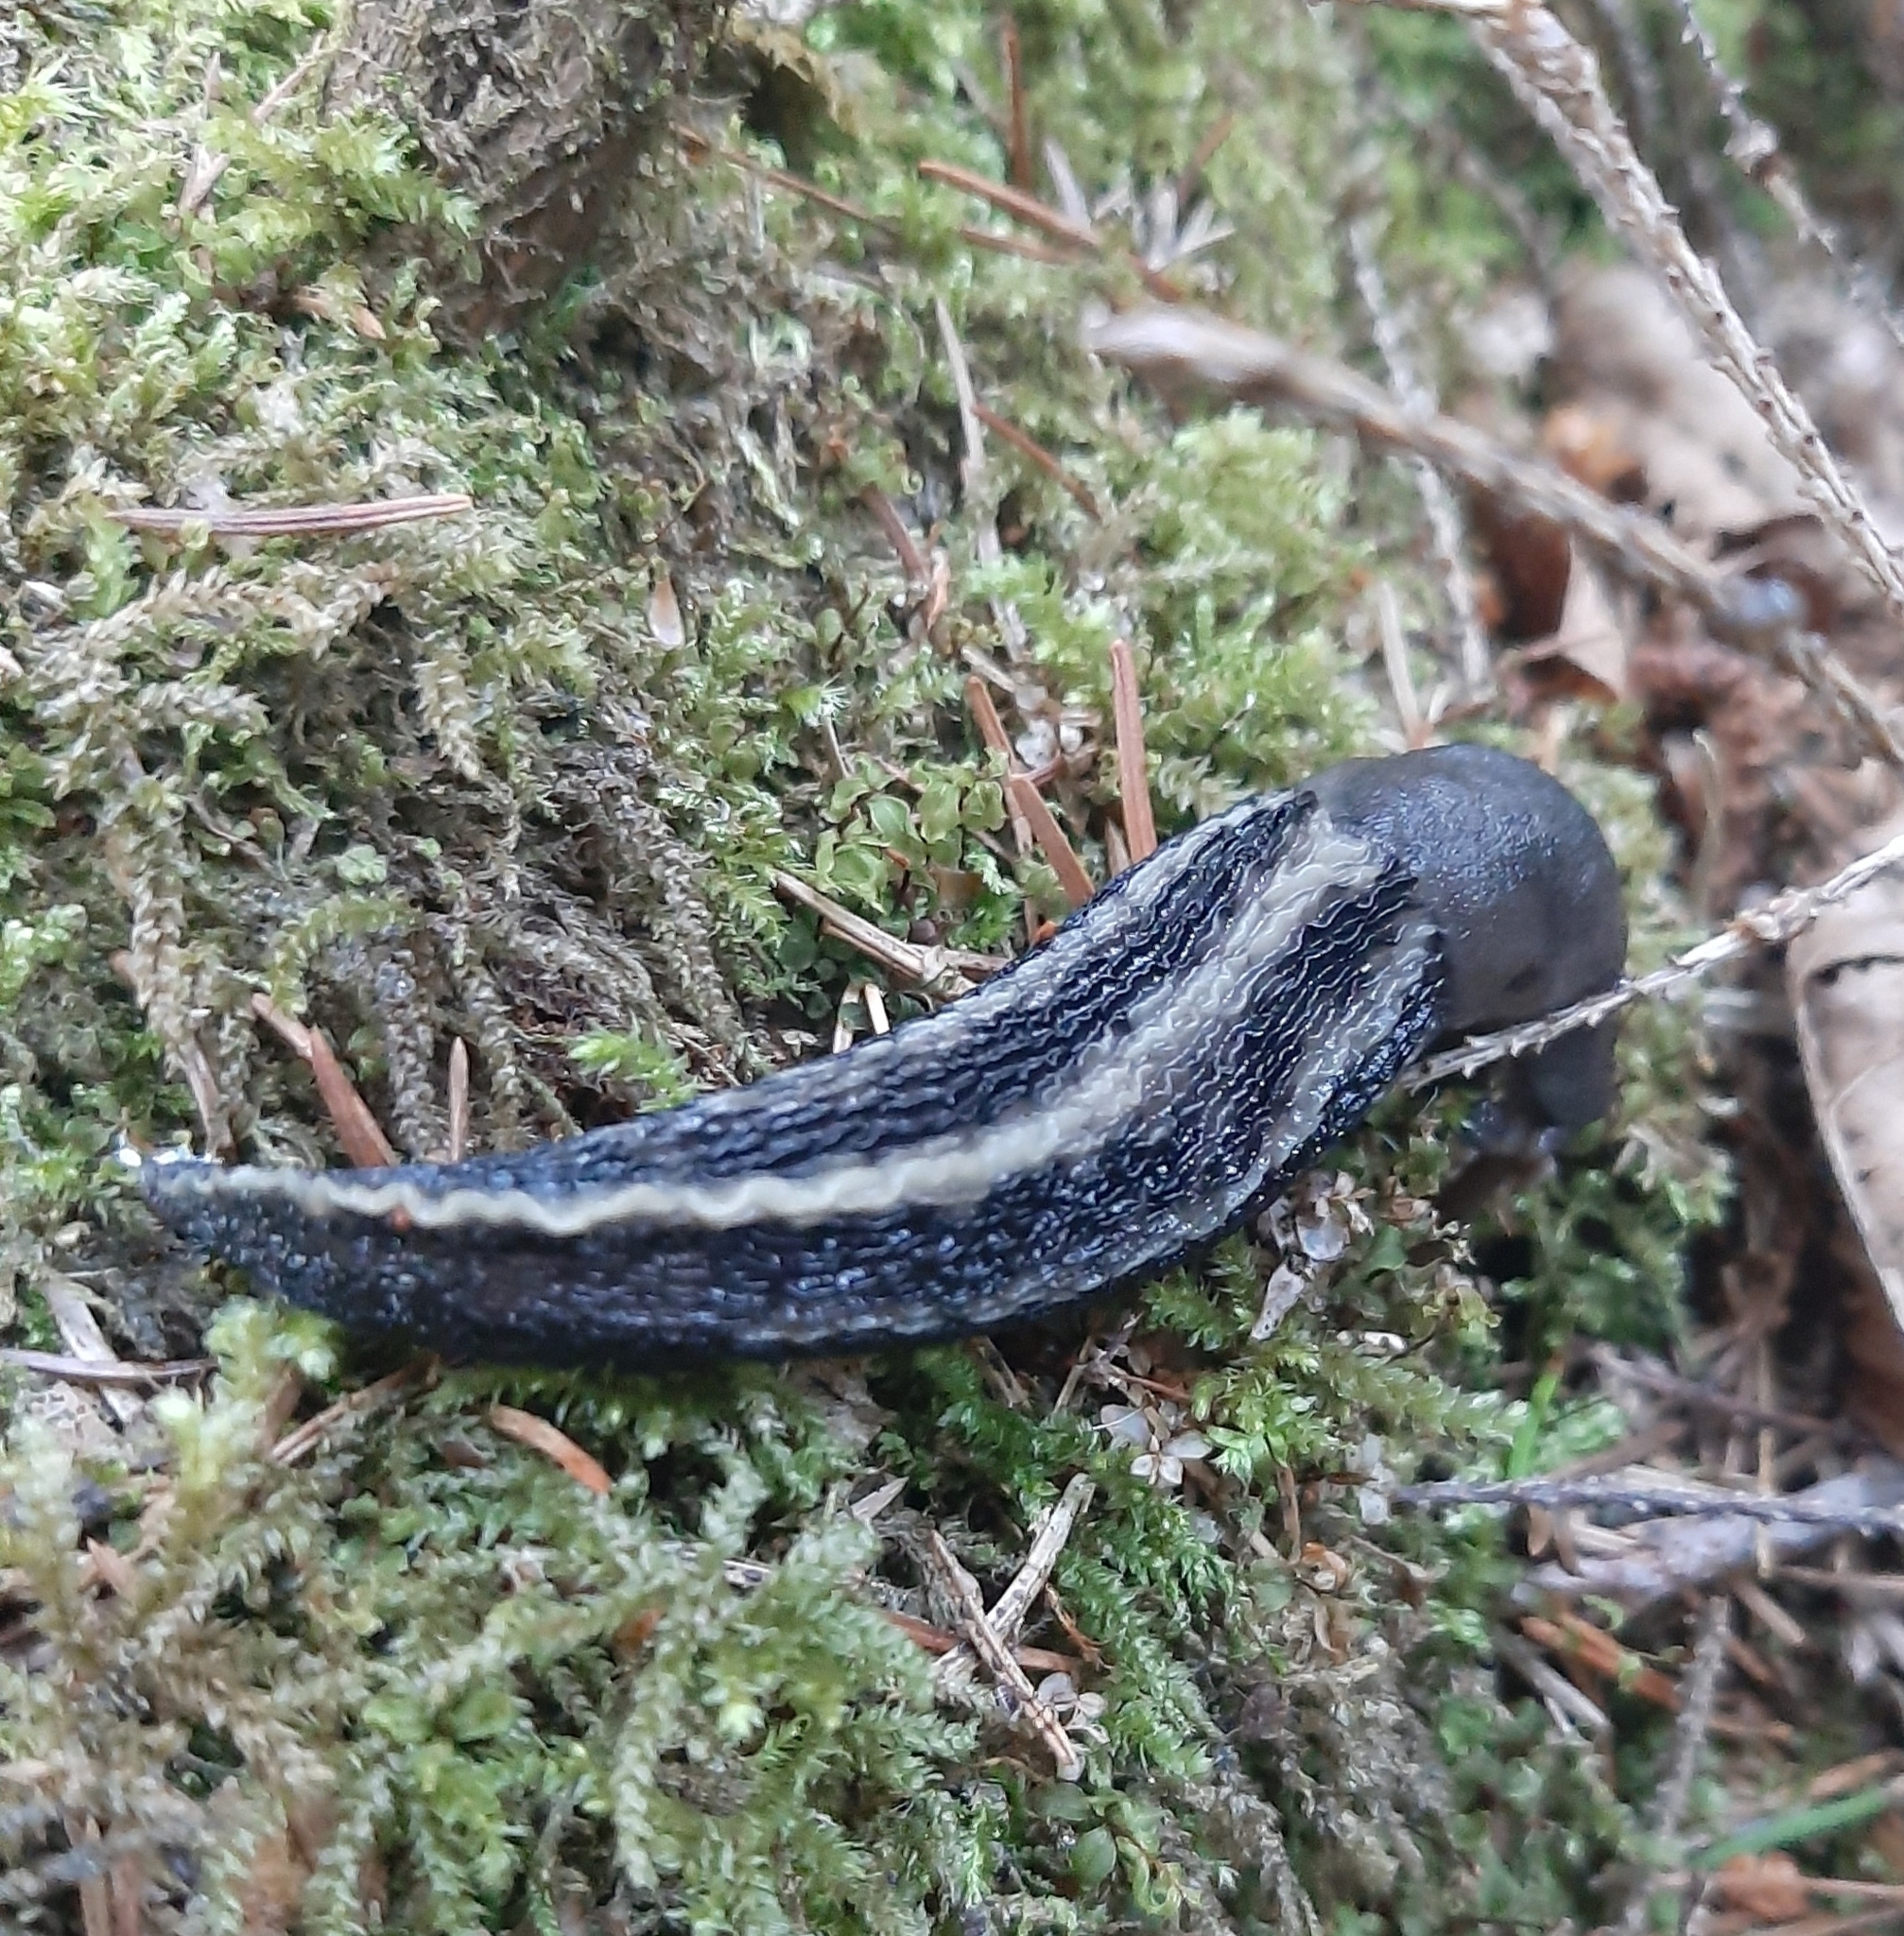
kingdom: Animalia
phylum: Mollusca
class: Gastropoda
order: Stylommatophora
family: Limacidae
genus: Limax
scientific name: Limax cinereoniger
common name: Ash-black slug
